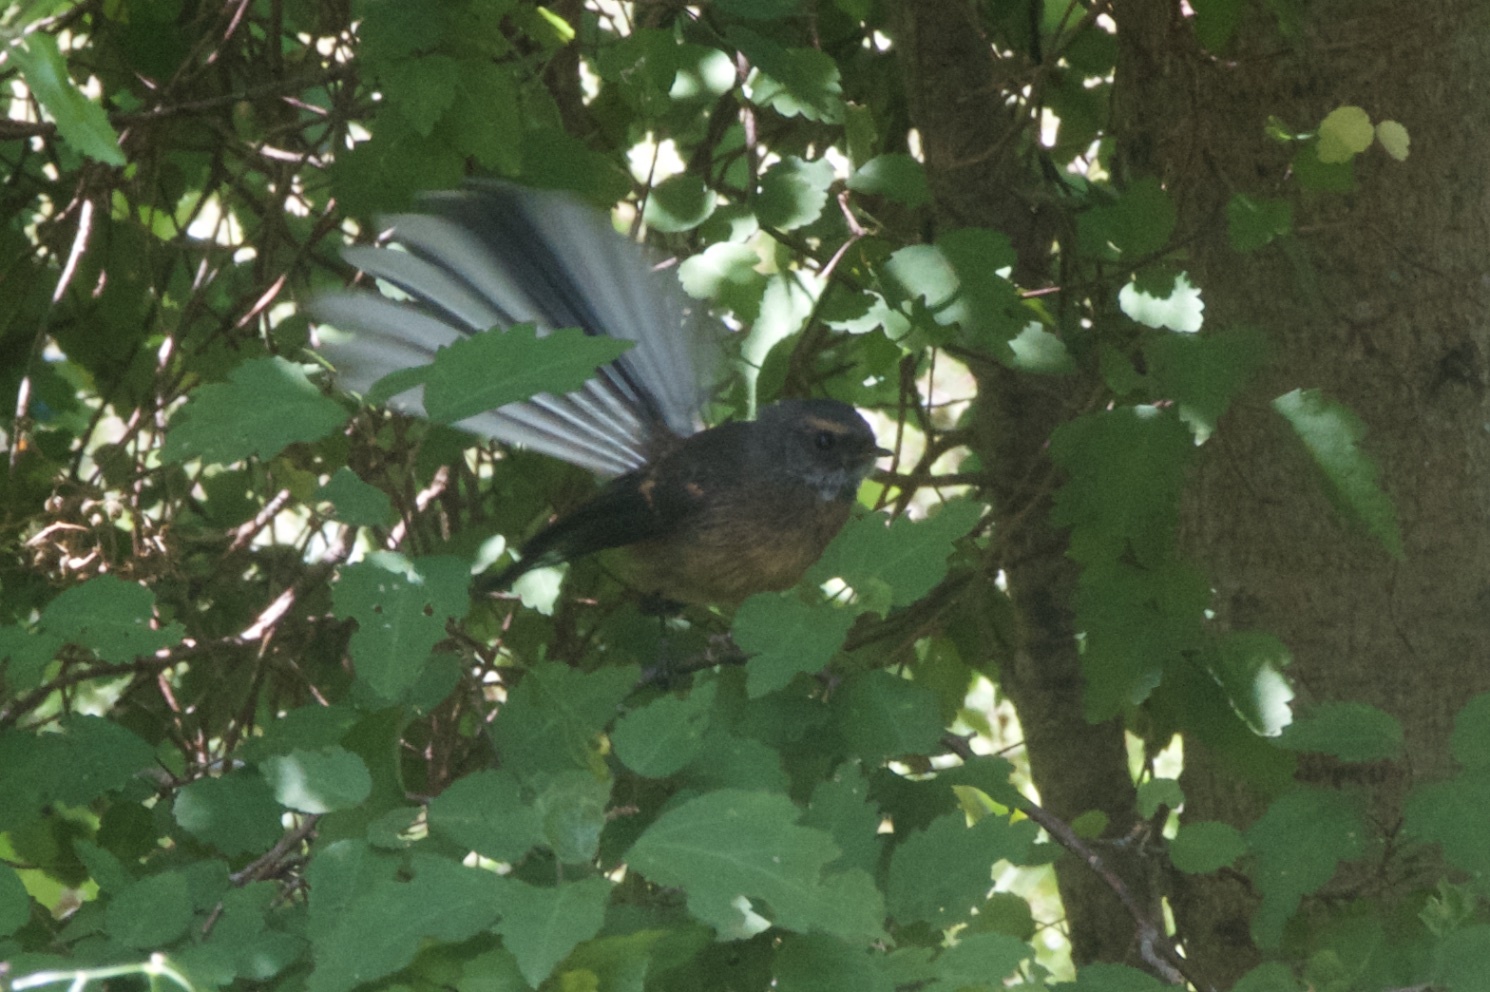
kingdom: Animalia
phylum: Chordata
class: Aves
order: Passeriformes
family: Rhipiduridae
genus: Rhipidura
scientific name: Rhipidura fuliginosa
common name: New zealand fantail
